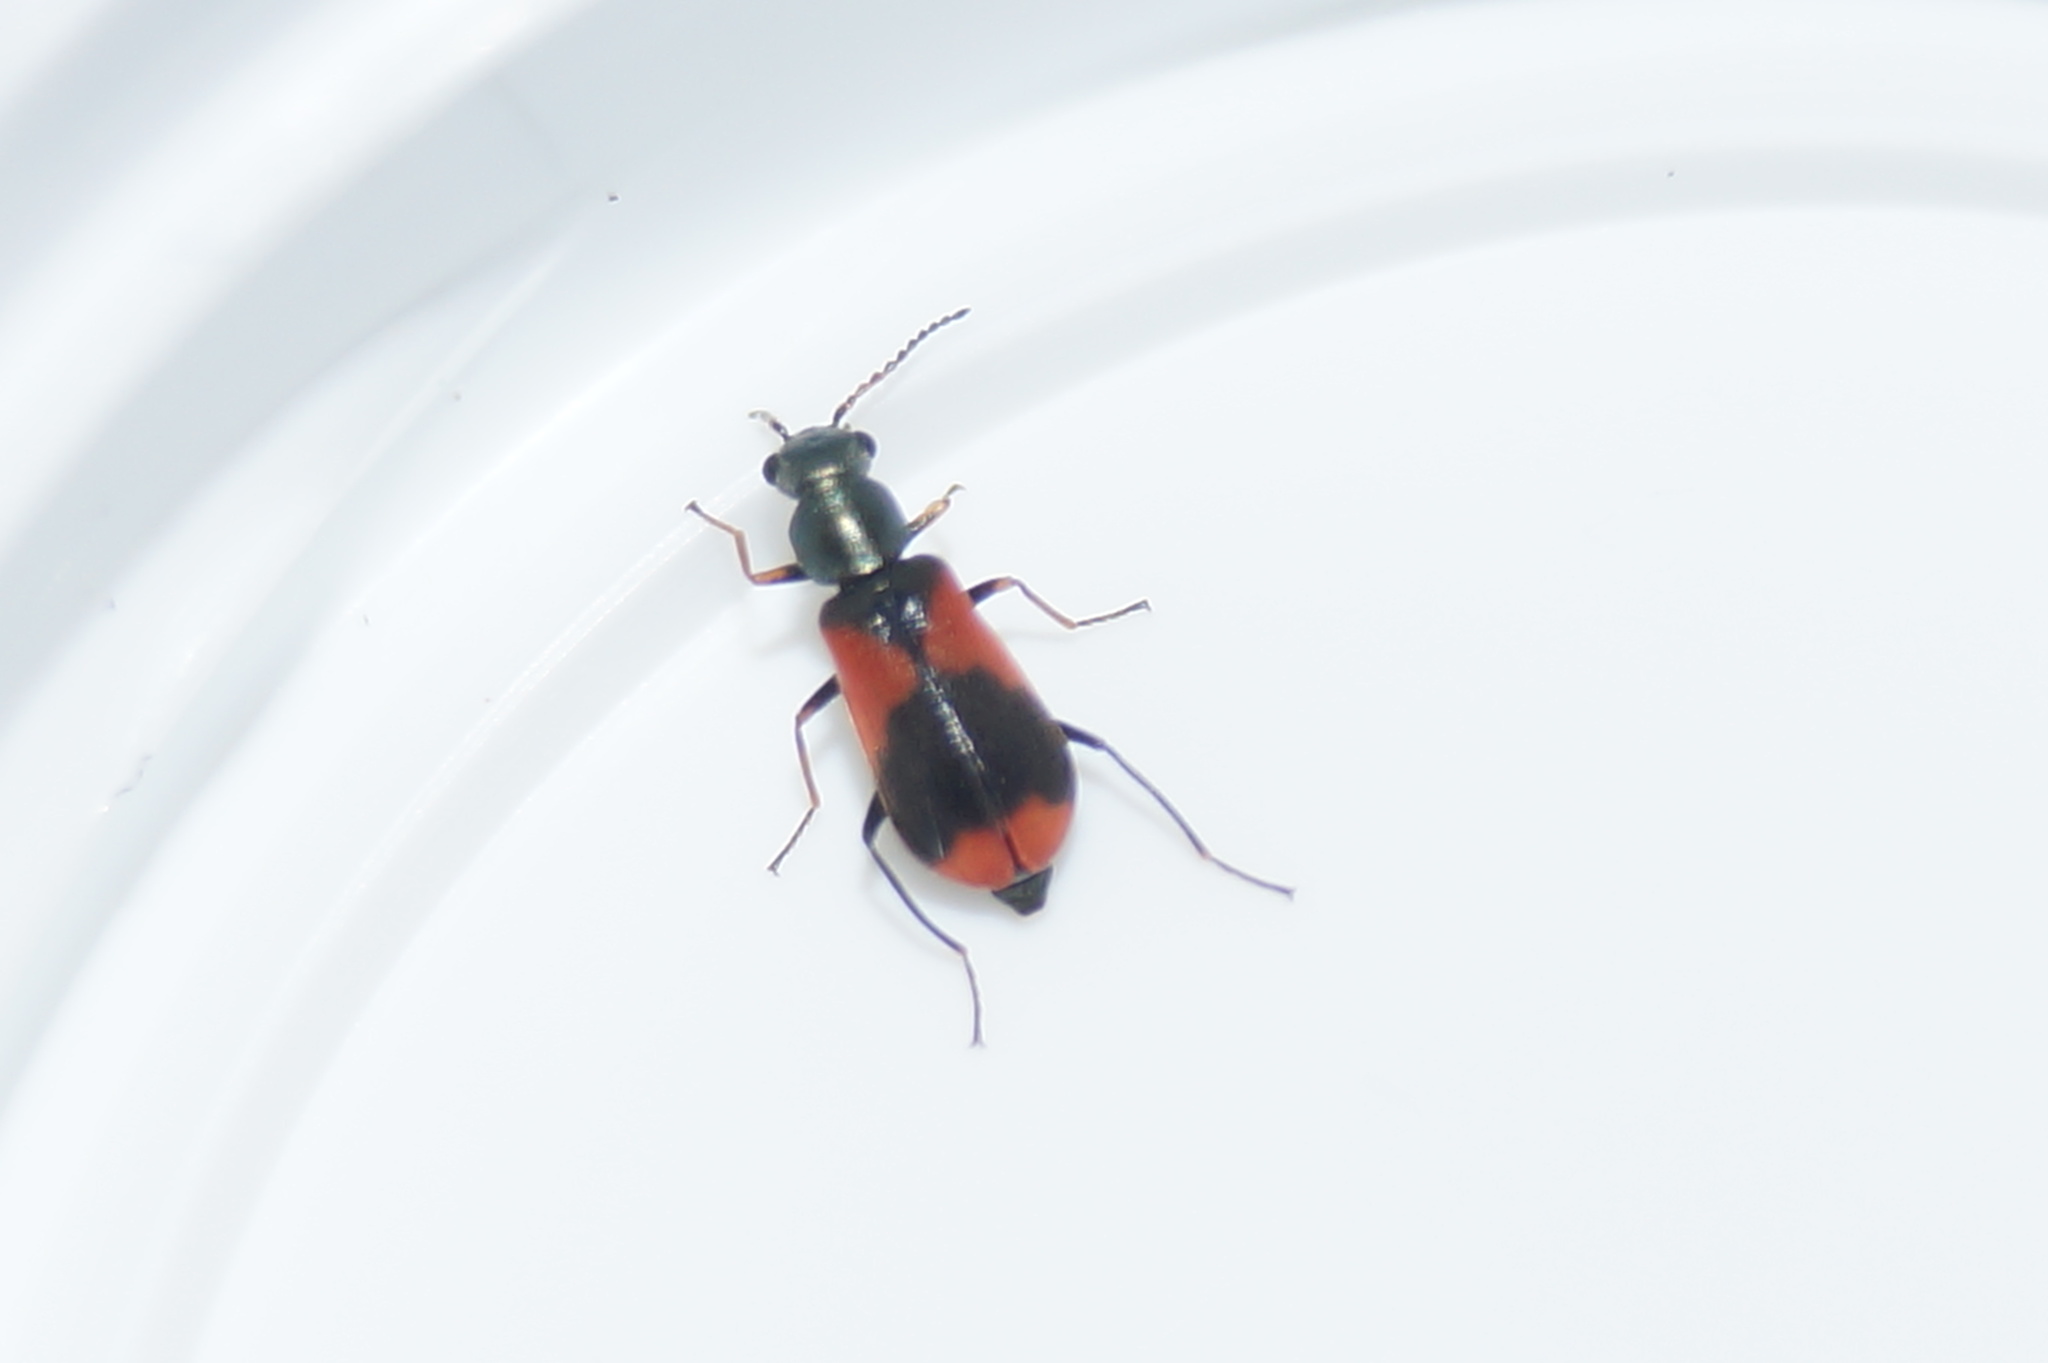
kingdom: Animalia
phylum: Arthropoda
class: Insecta
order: Coleoptera
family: Melyridae
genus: Anthocomus
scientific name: Anthocomus equestris
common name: Black-banded soft-winged flower beetle
